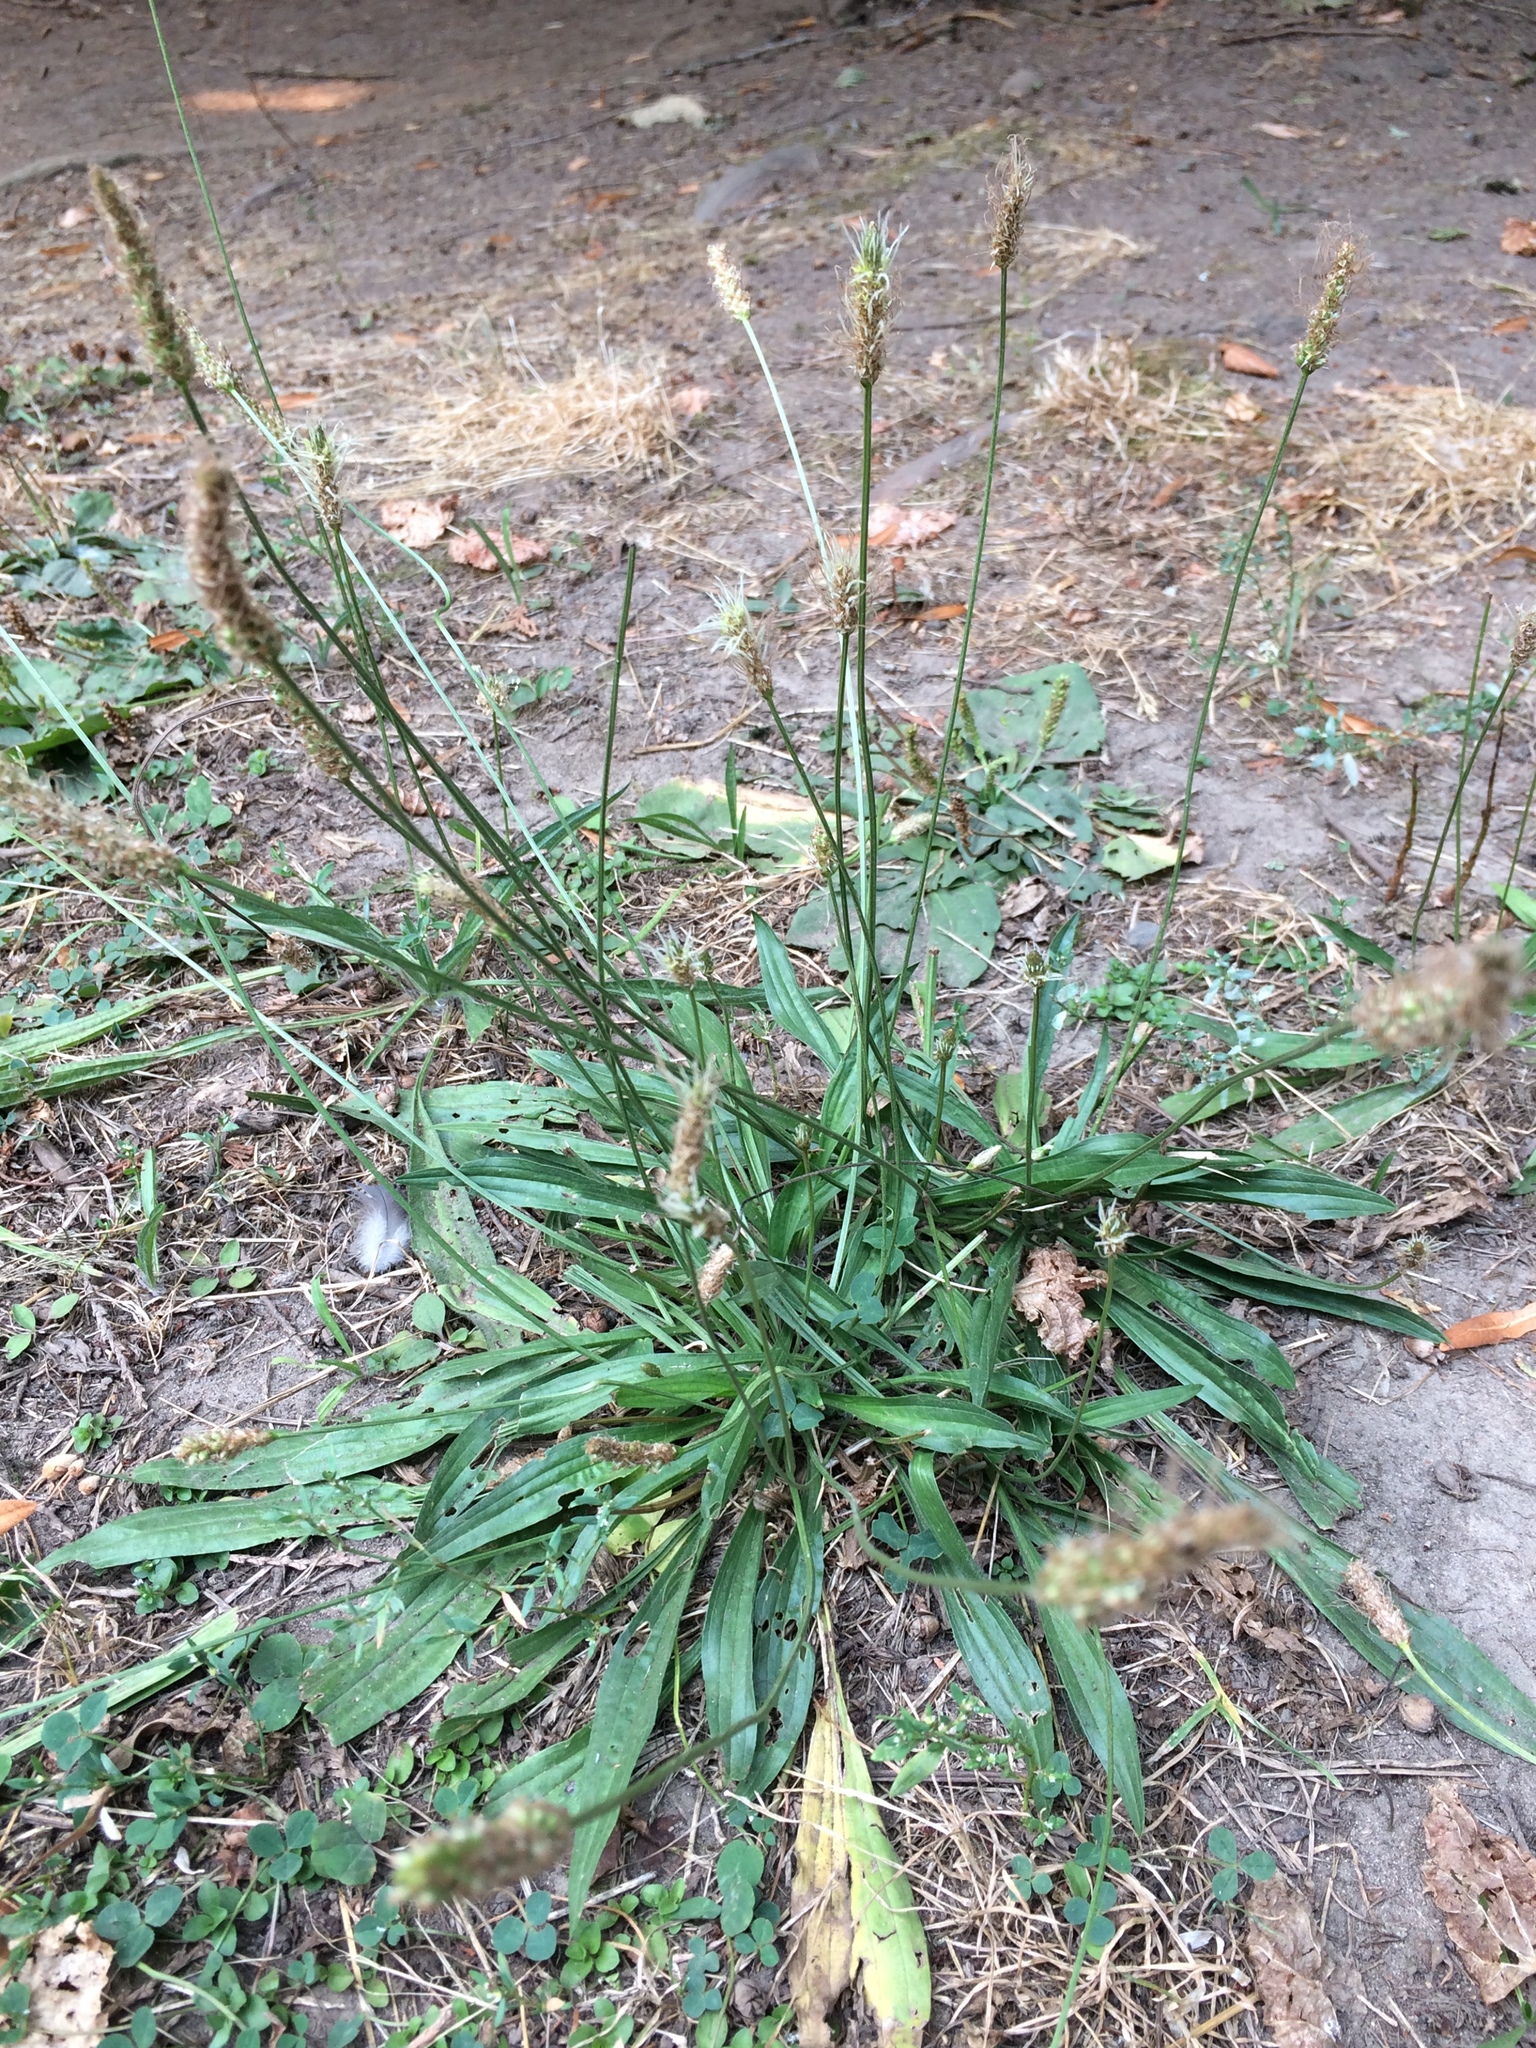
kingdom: Plantae
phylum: Tracheophyta
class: Magnoliopsida
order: Lamiales
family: Plantaginaceae
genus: Plantago
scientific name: Plantago lanceolata
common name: Ribwort plantain
